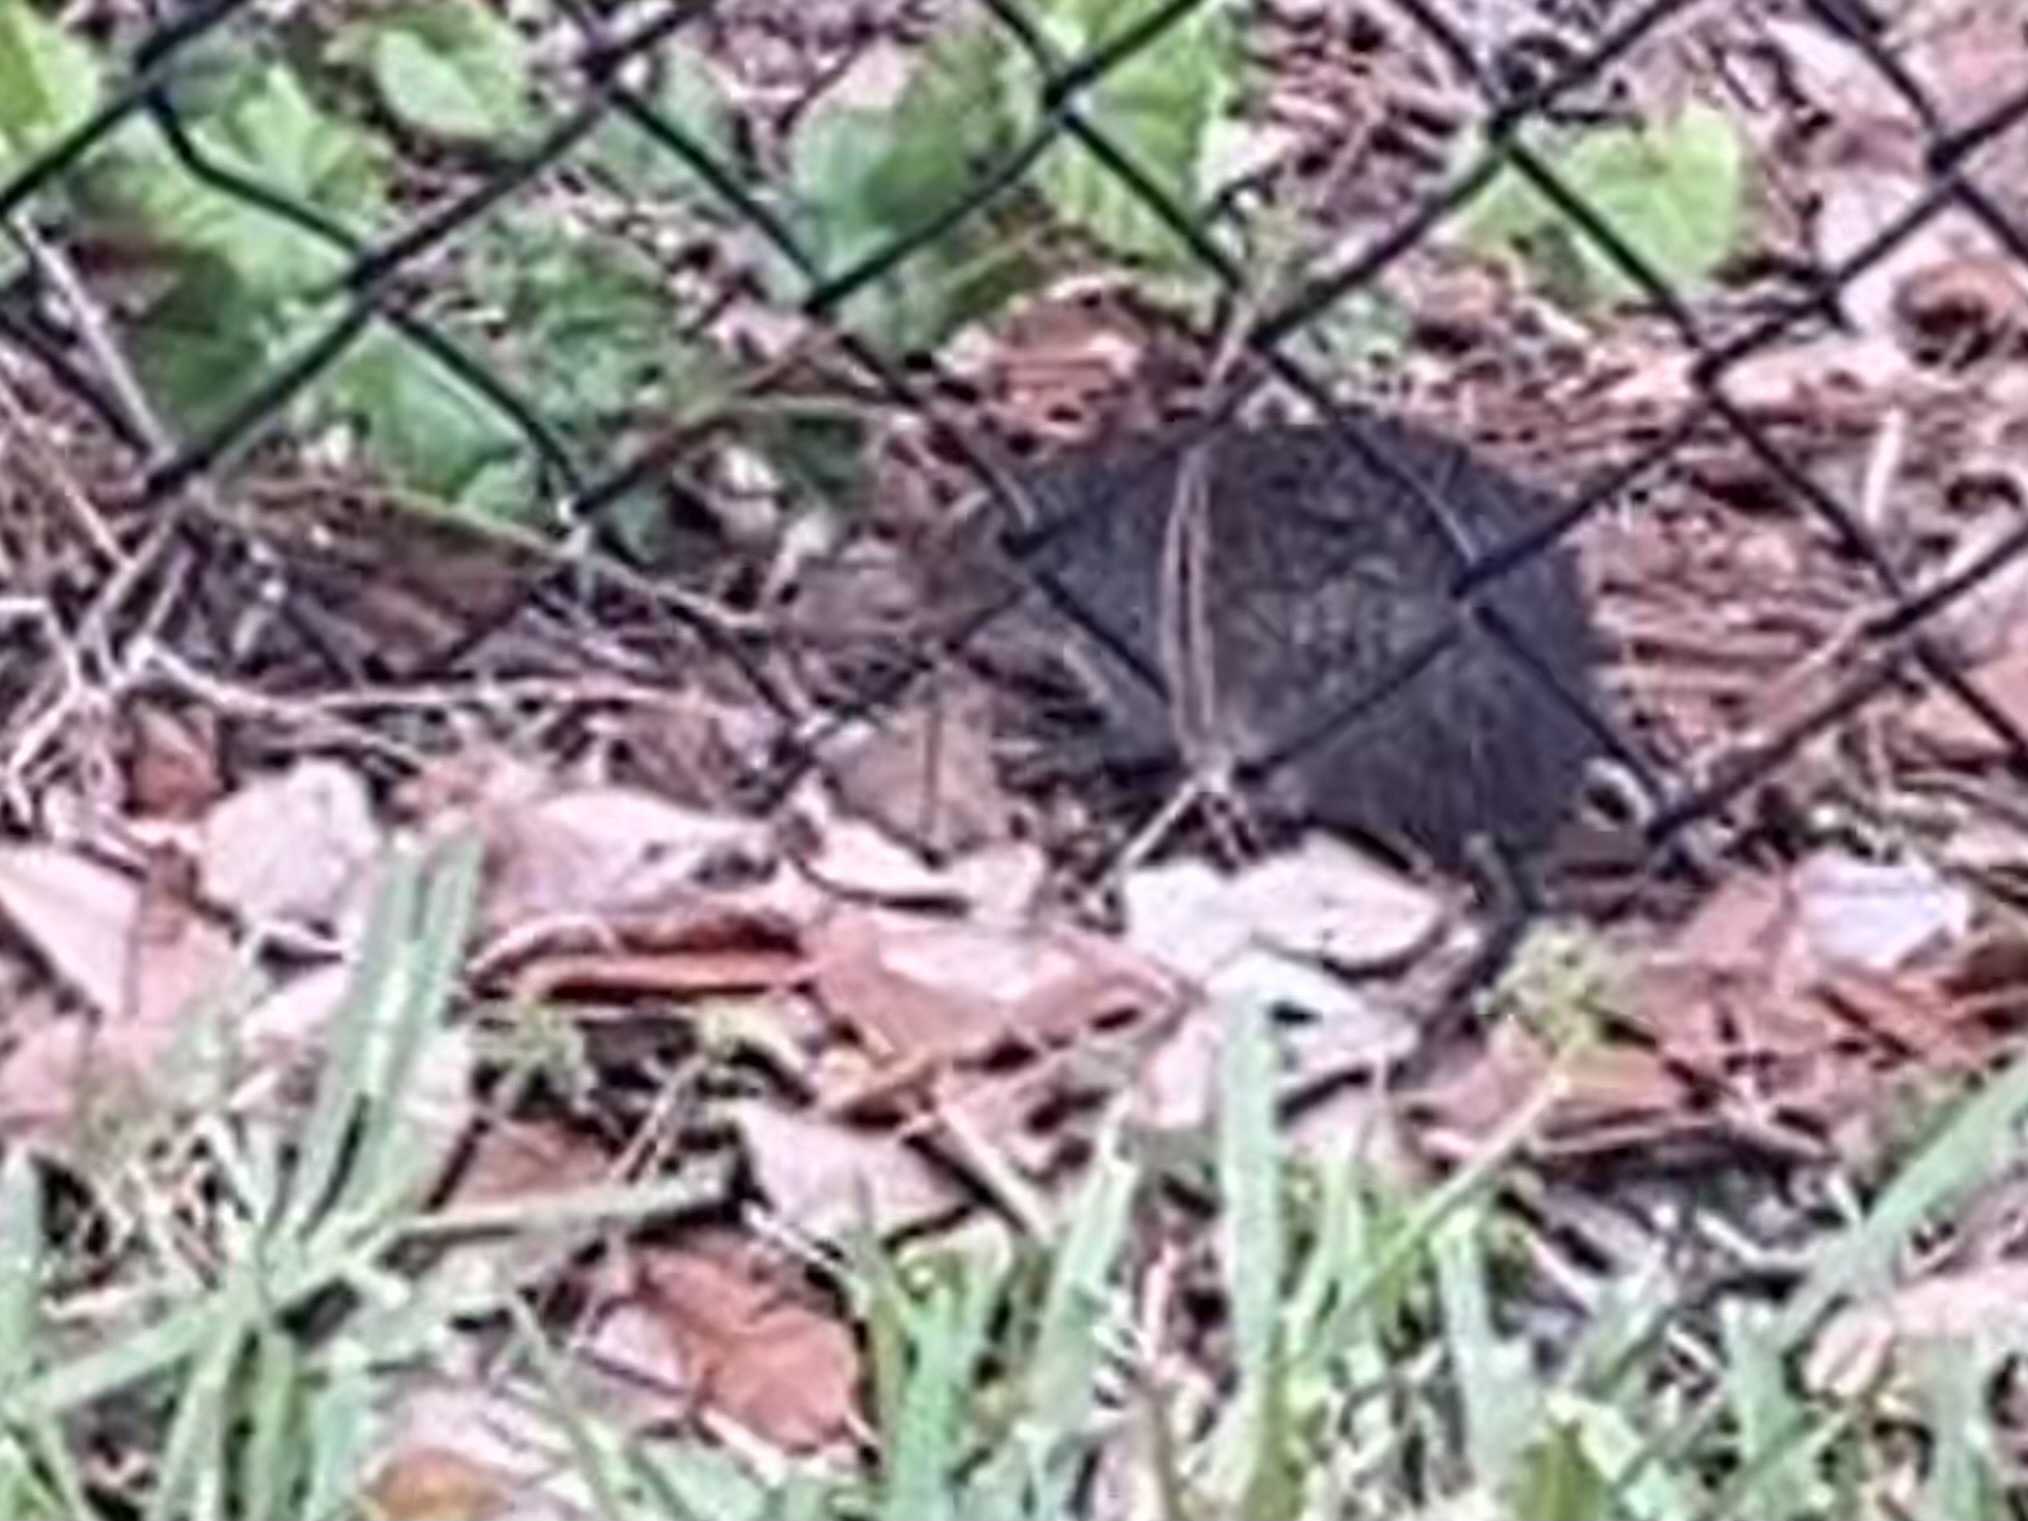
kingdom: Animalia
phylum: Chordata
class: Mammalia
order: Rodentia
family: Muridae
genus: Rattus
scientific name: Rattus rattus
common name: Black rat
